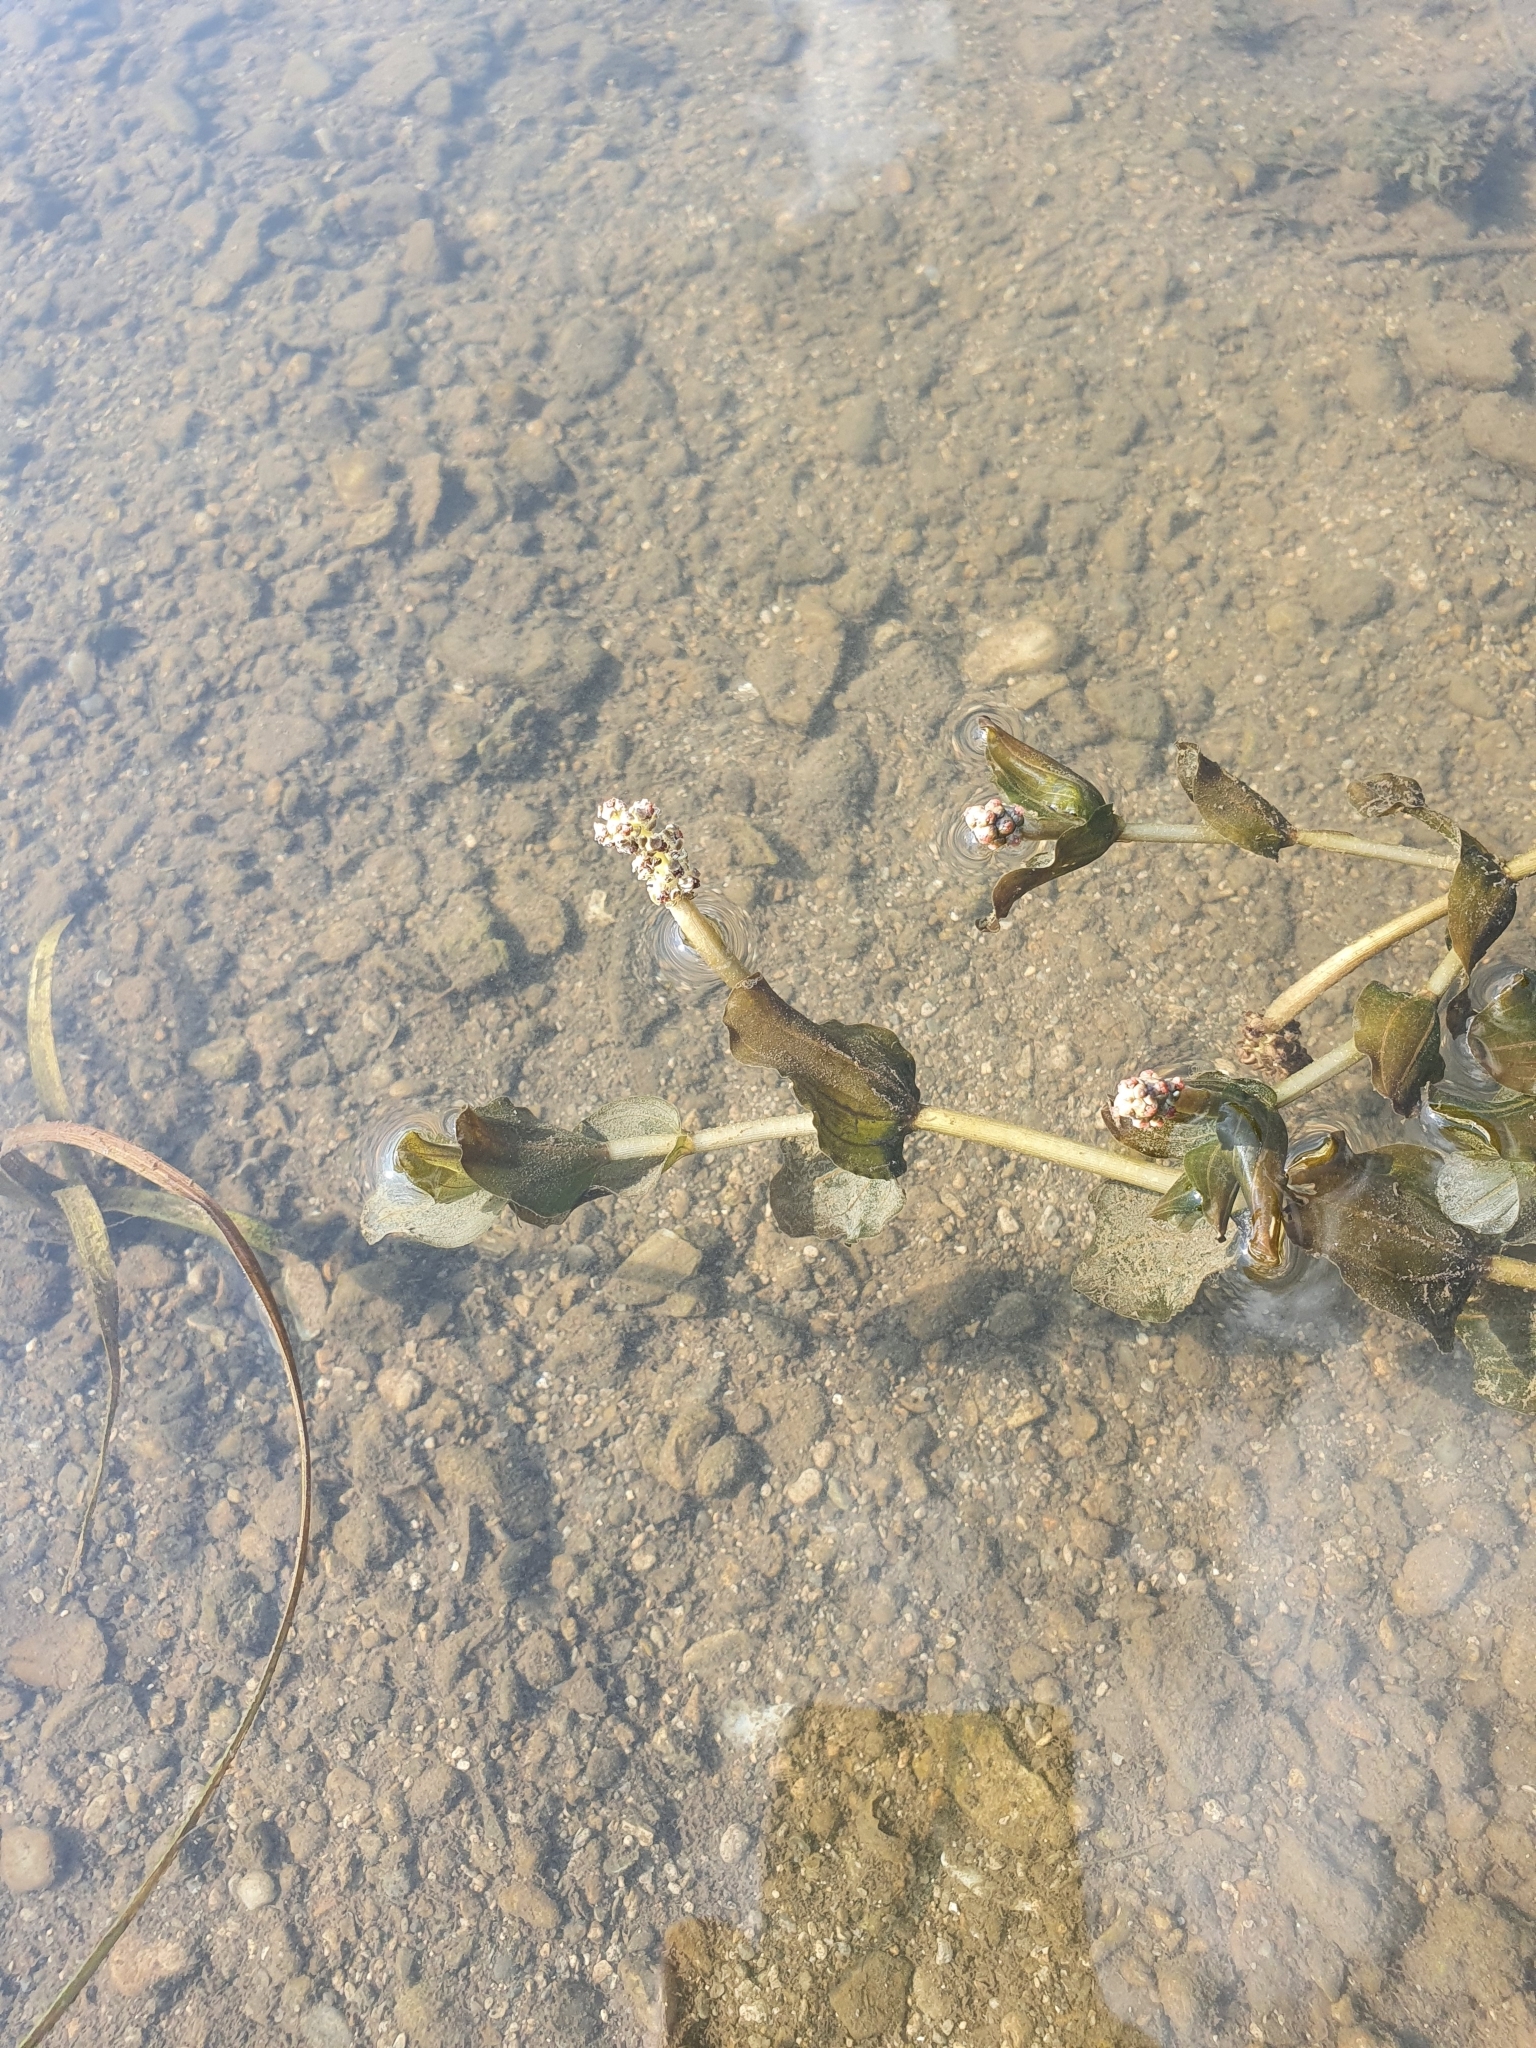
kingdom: Plantae
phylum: Tracheophyta
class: Liliopsida
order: Alismatales
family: Potamogetonaceae
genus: Potamogeton
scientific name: Potamogeton perfoliatus
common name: Perfoliate pondweed
